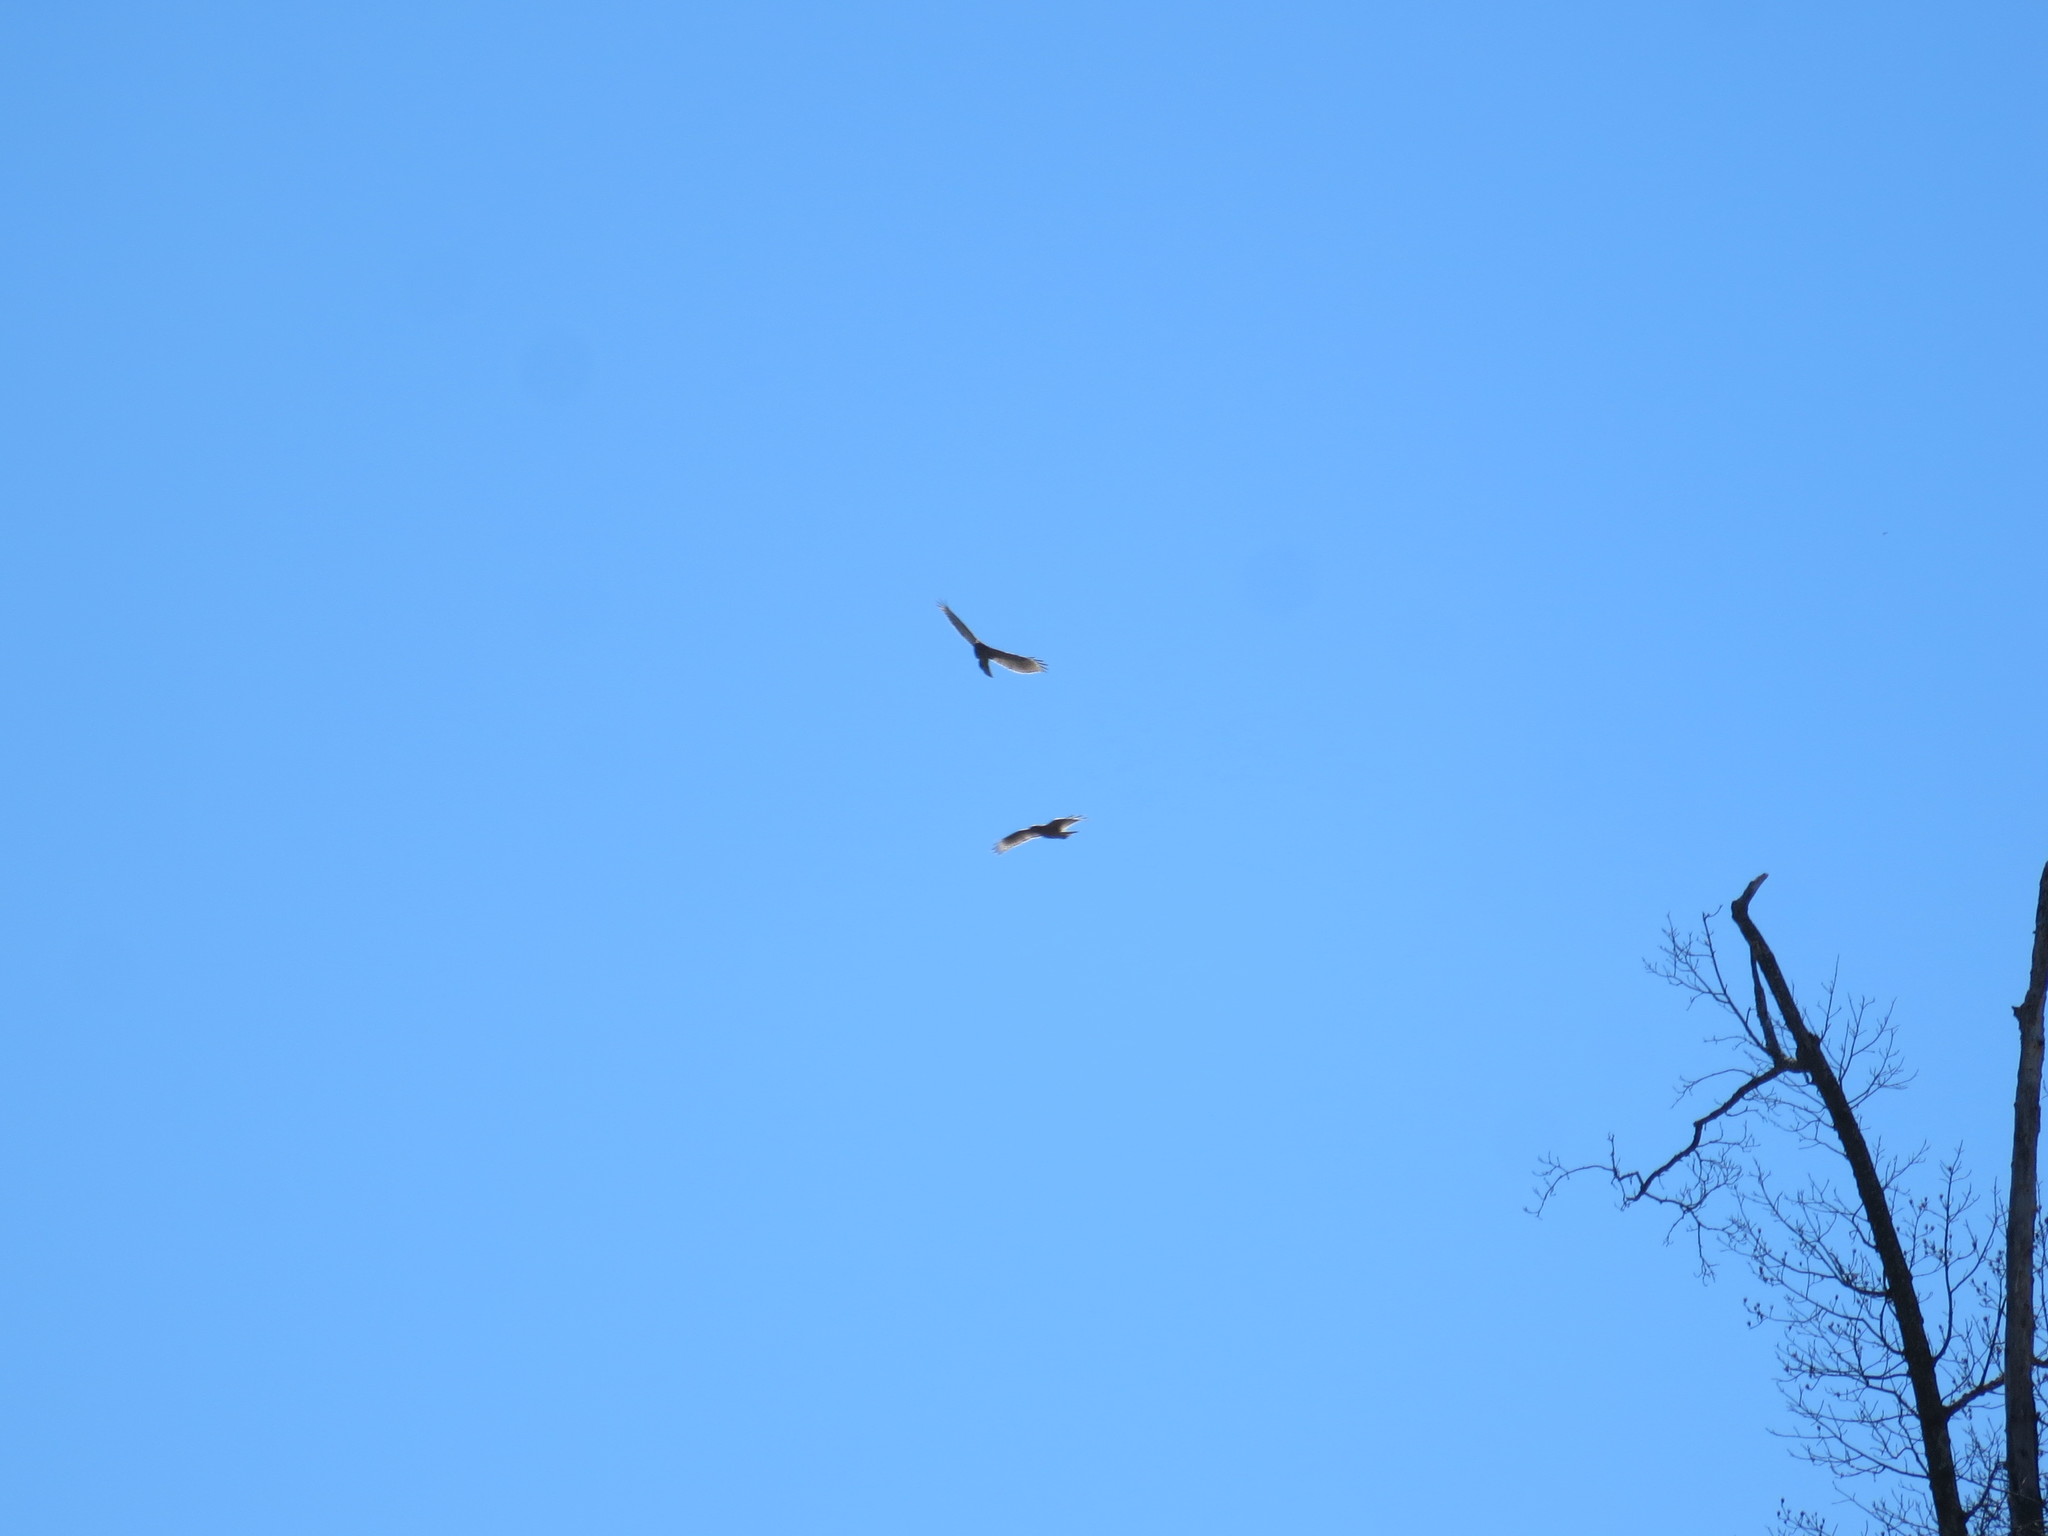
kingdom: Animalia
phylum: Chordata
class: Aves
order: Accipitriformes
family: Accipitridae
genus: Buteo
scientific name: Buteo lineatus
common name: Red-shouldered hawk
